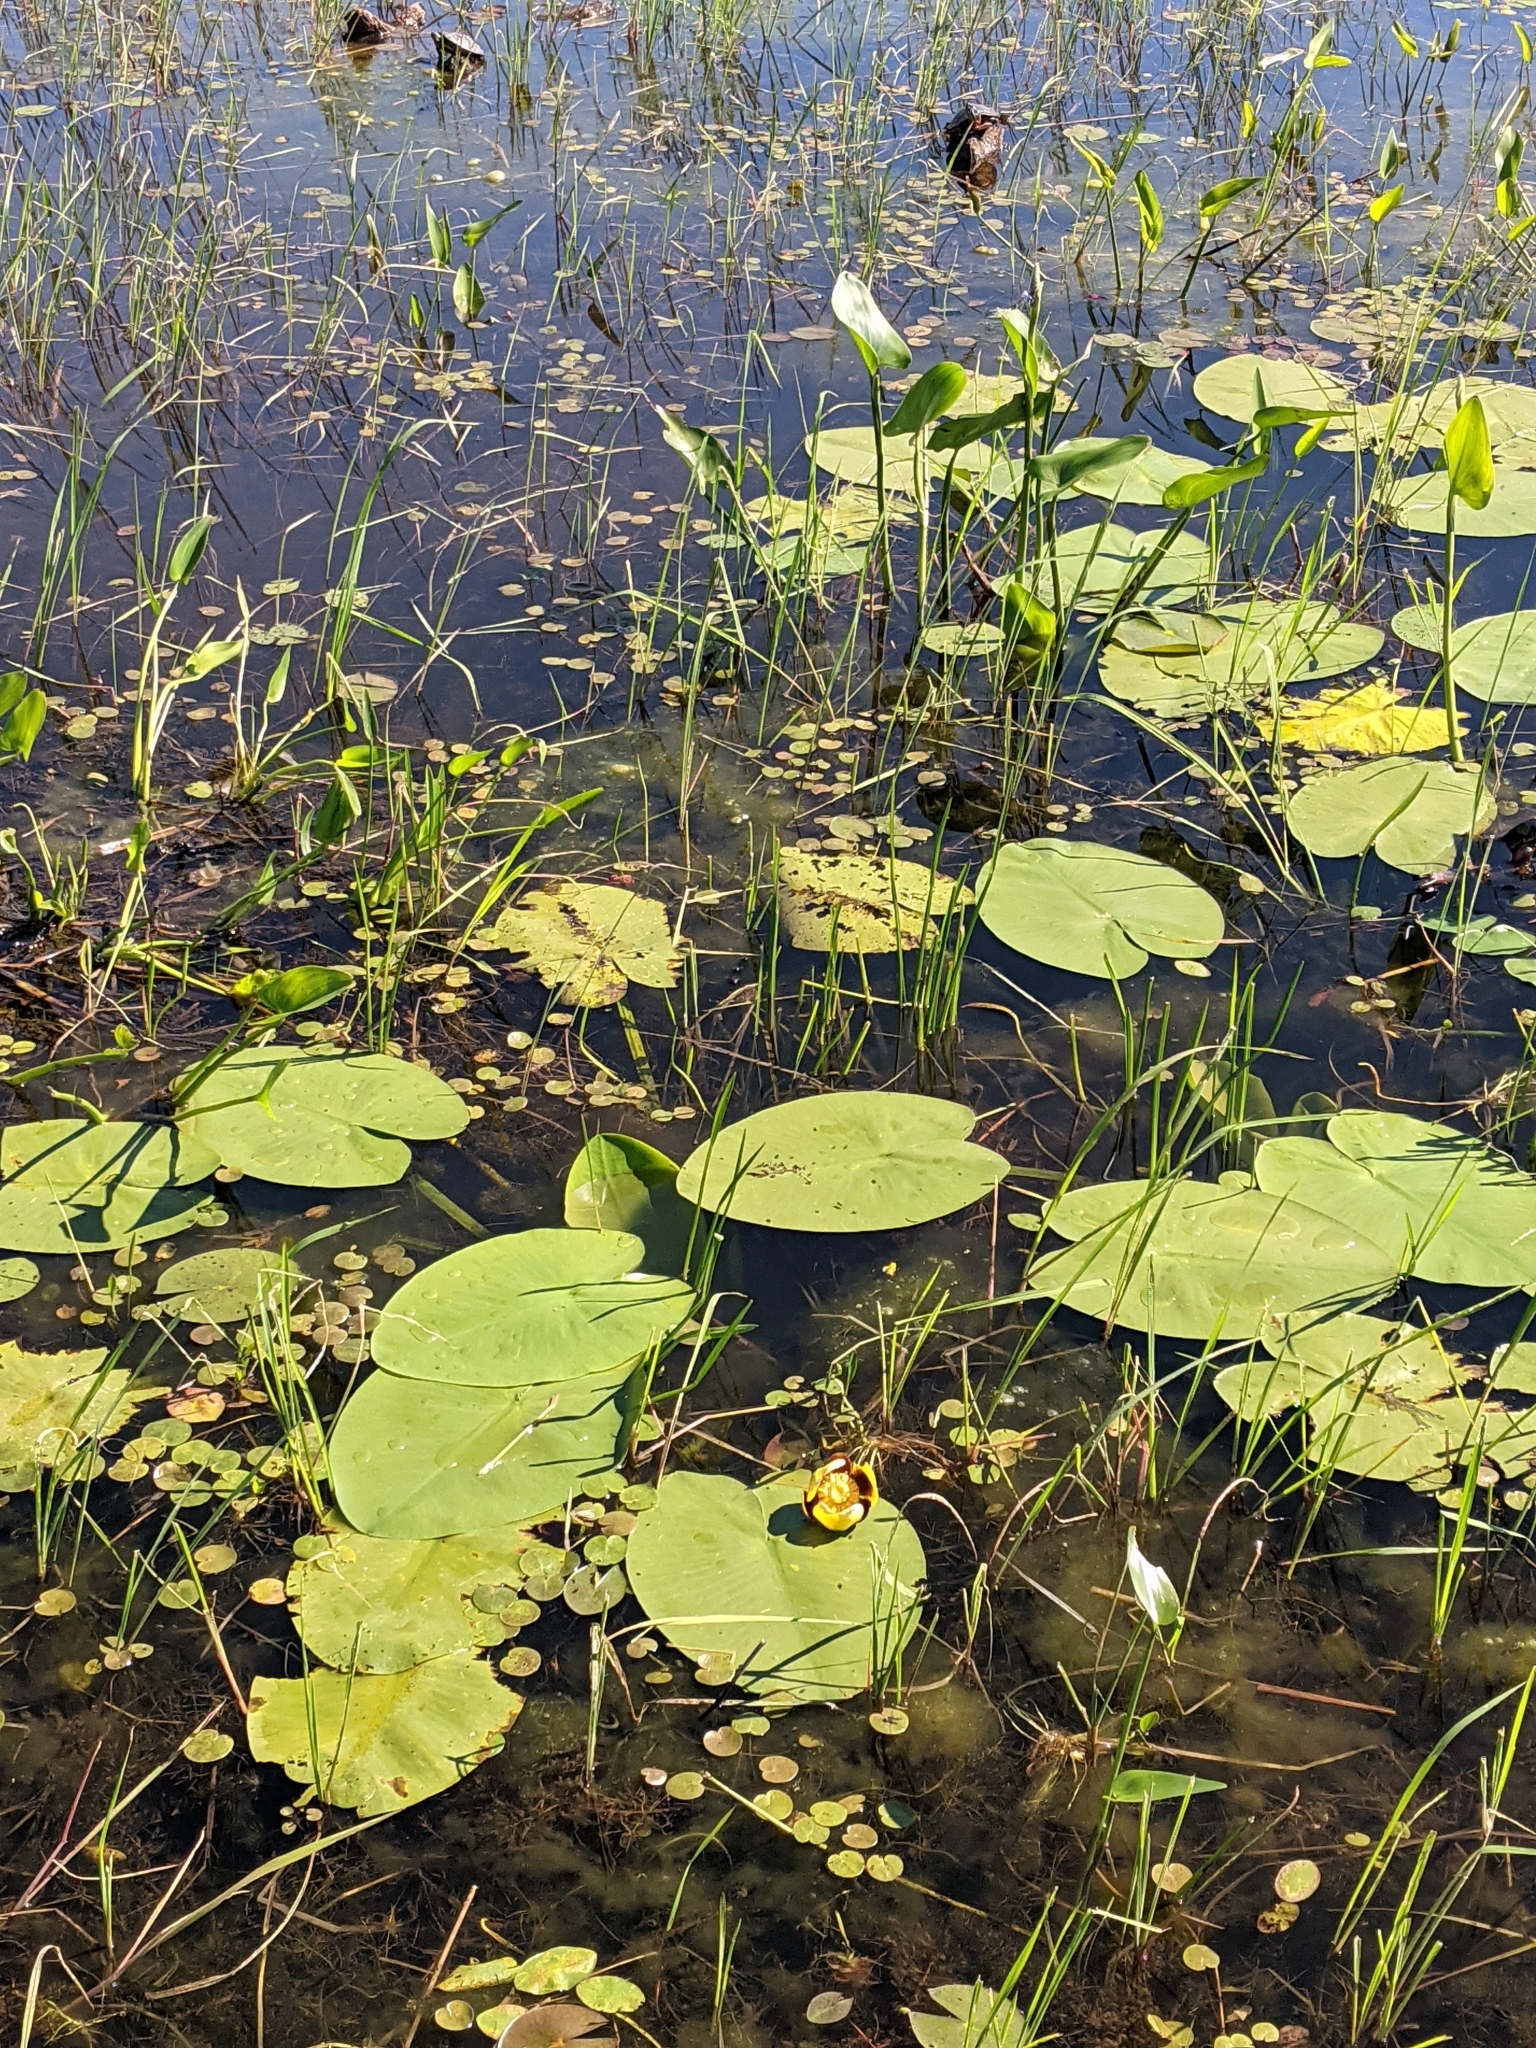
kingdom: Plantae
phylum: Tracheophyta
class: Magnoliopsida
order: Nymphaeales
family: Nymphaeaceae
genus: Nuphar
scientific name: Nuphar variegata
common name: Beaver-root
